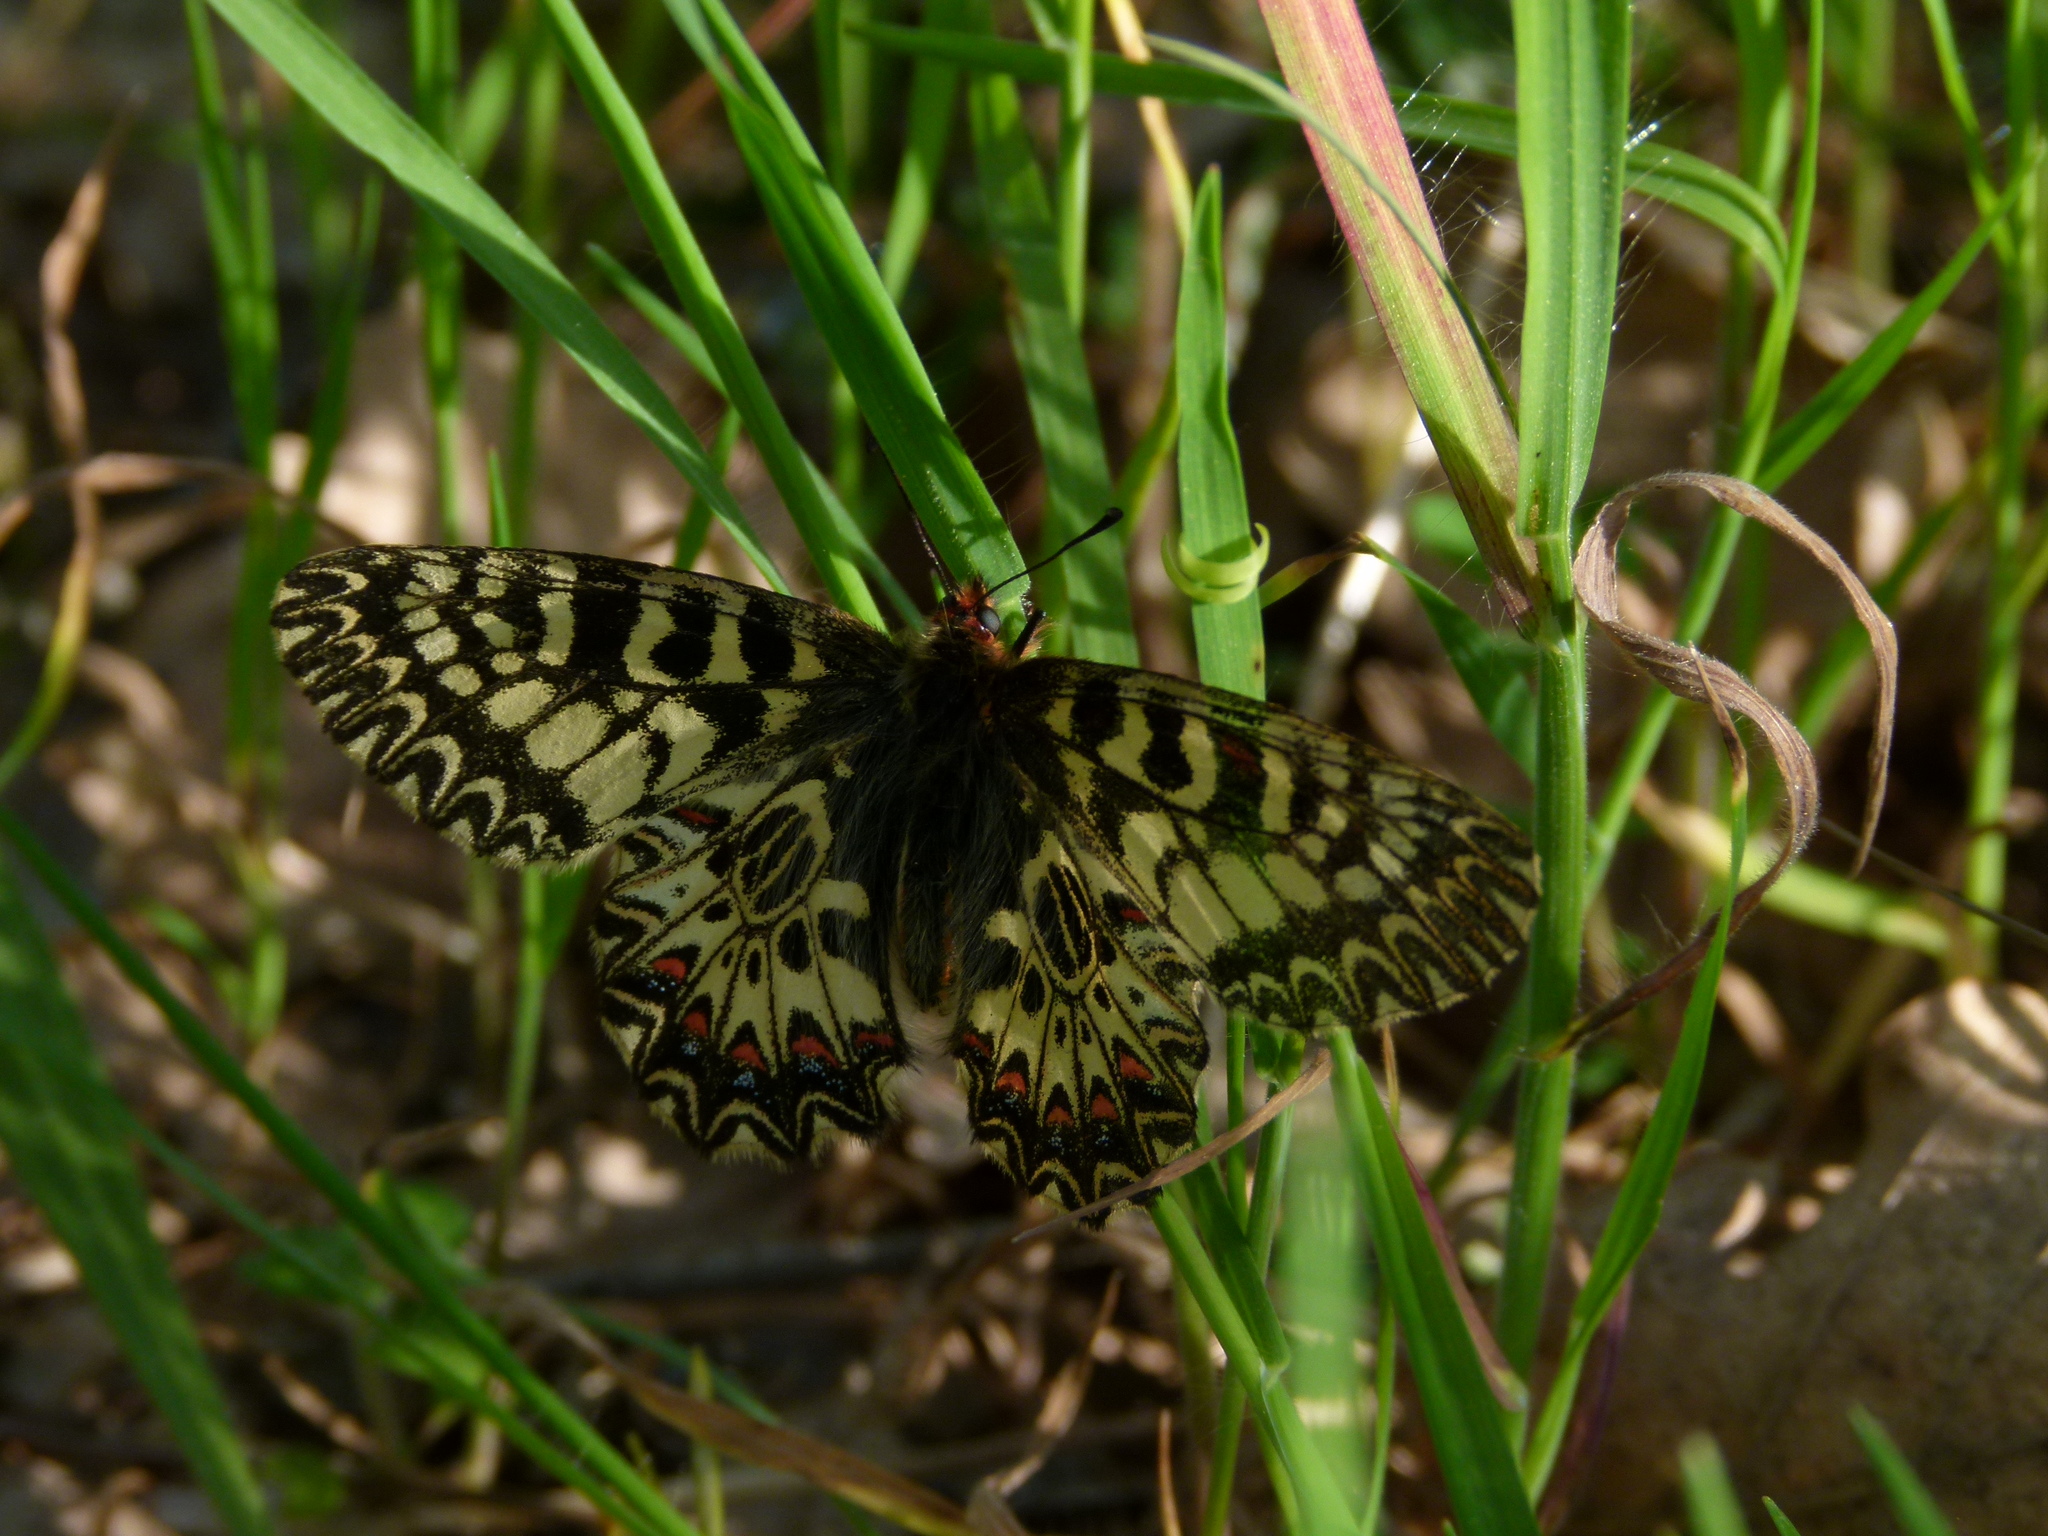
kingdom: Animalia
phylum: Arthropoda
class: Insecta
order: Lepidoptera
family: Papilionidae
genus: Zerynthia
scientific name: Zerynthia polyxena
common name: Southern festoon
